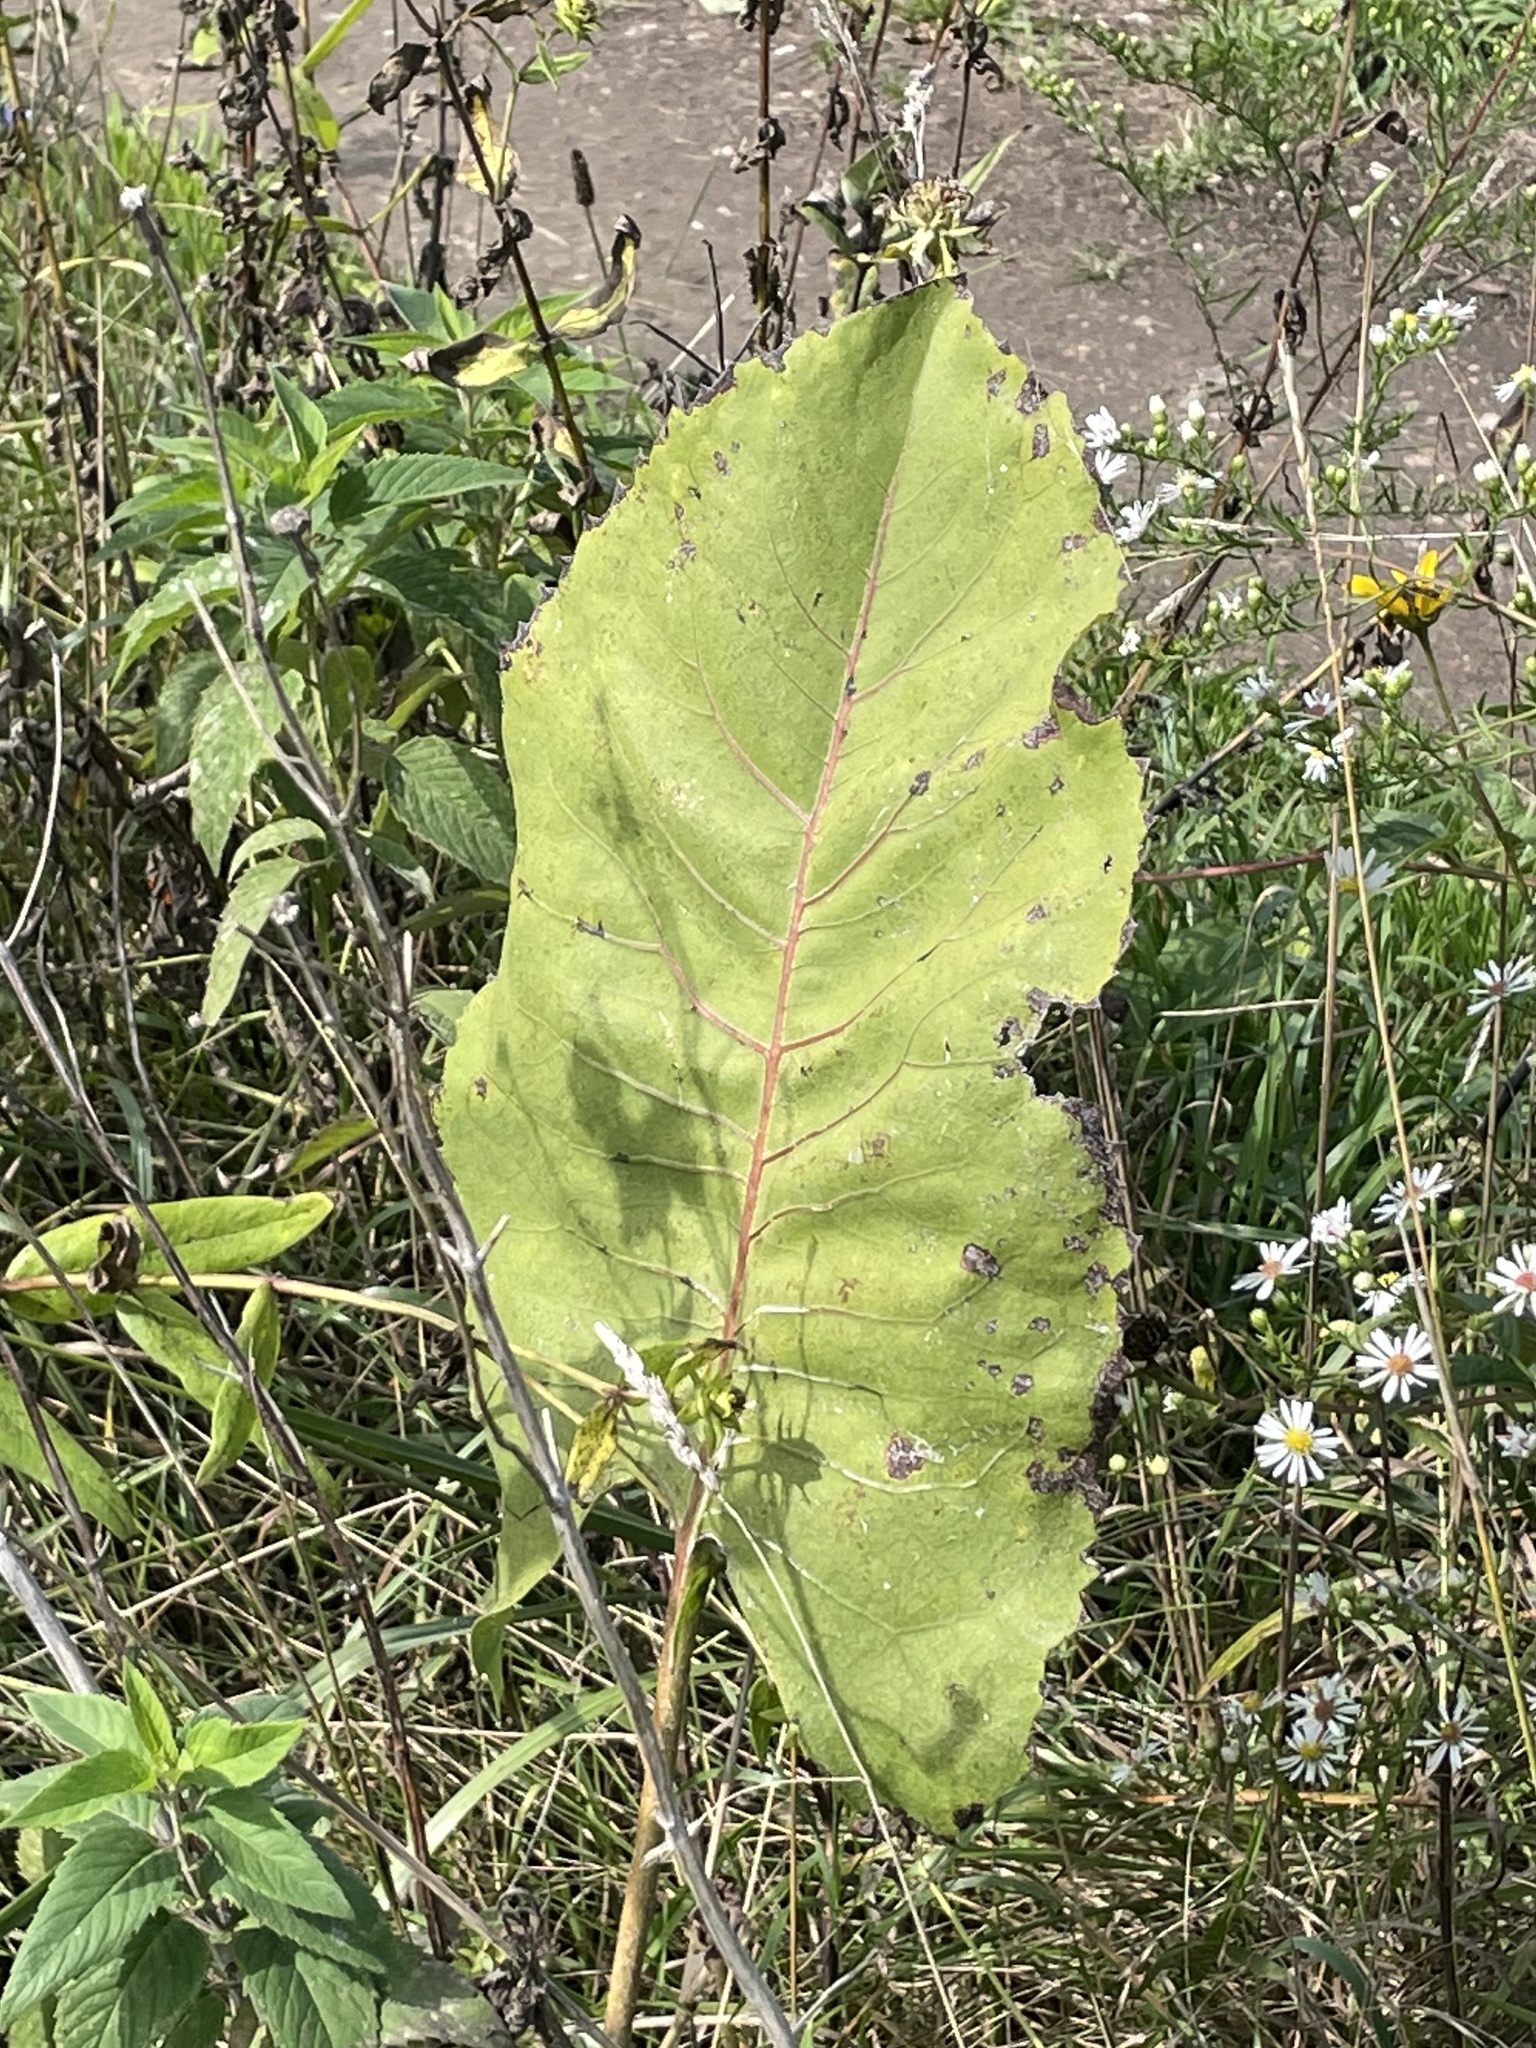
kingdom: Plantae
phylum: Tracheophyta
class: Magnoliopsida
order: Asterales
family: Asteraceae
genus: Silphium
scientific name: Silphium terebinthinaceum
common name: Basal-leaf rosinweed
